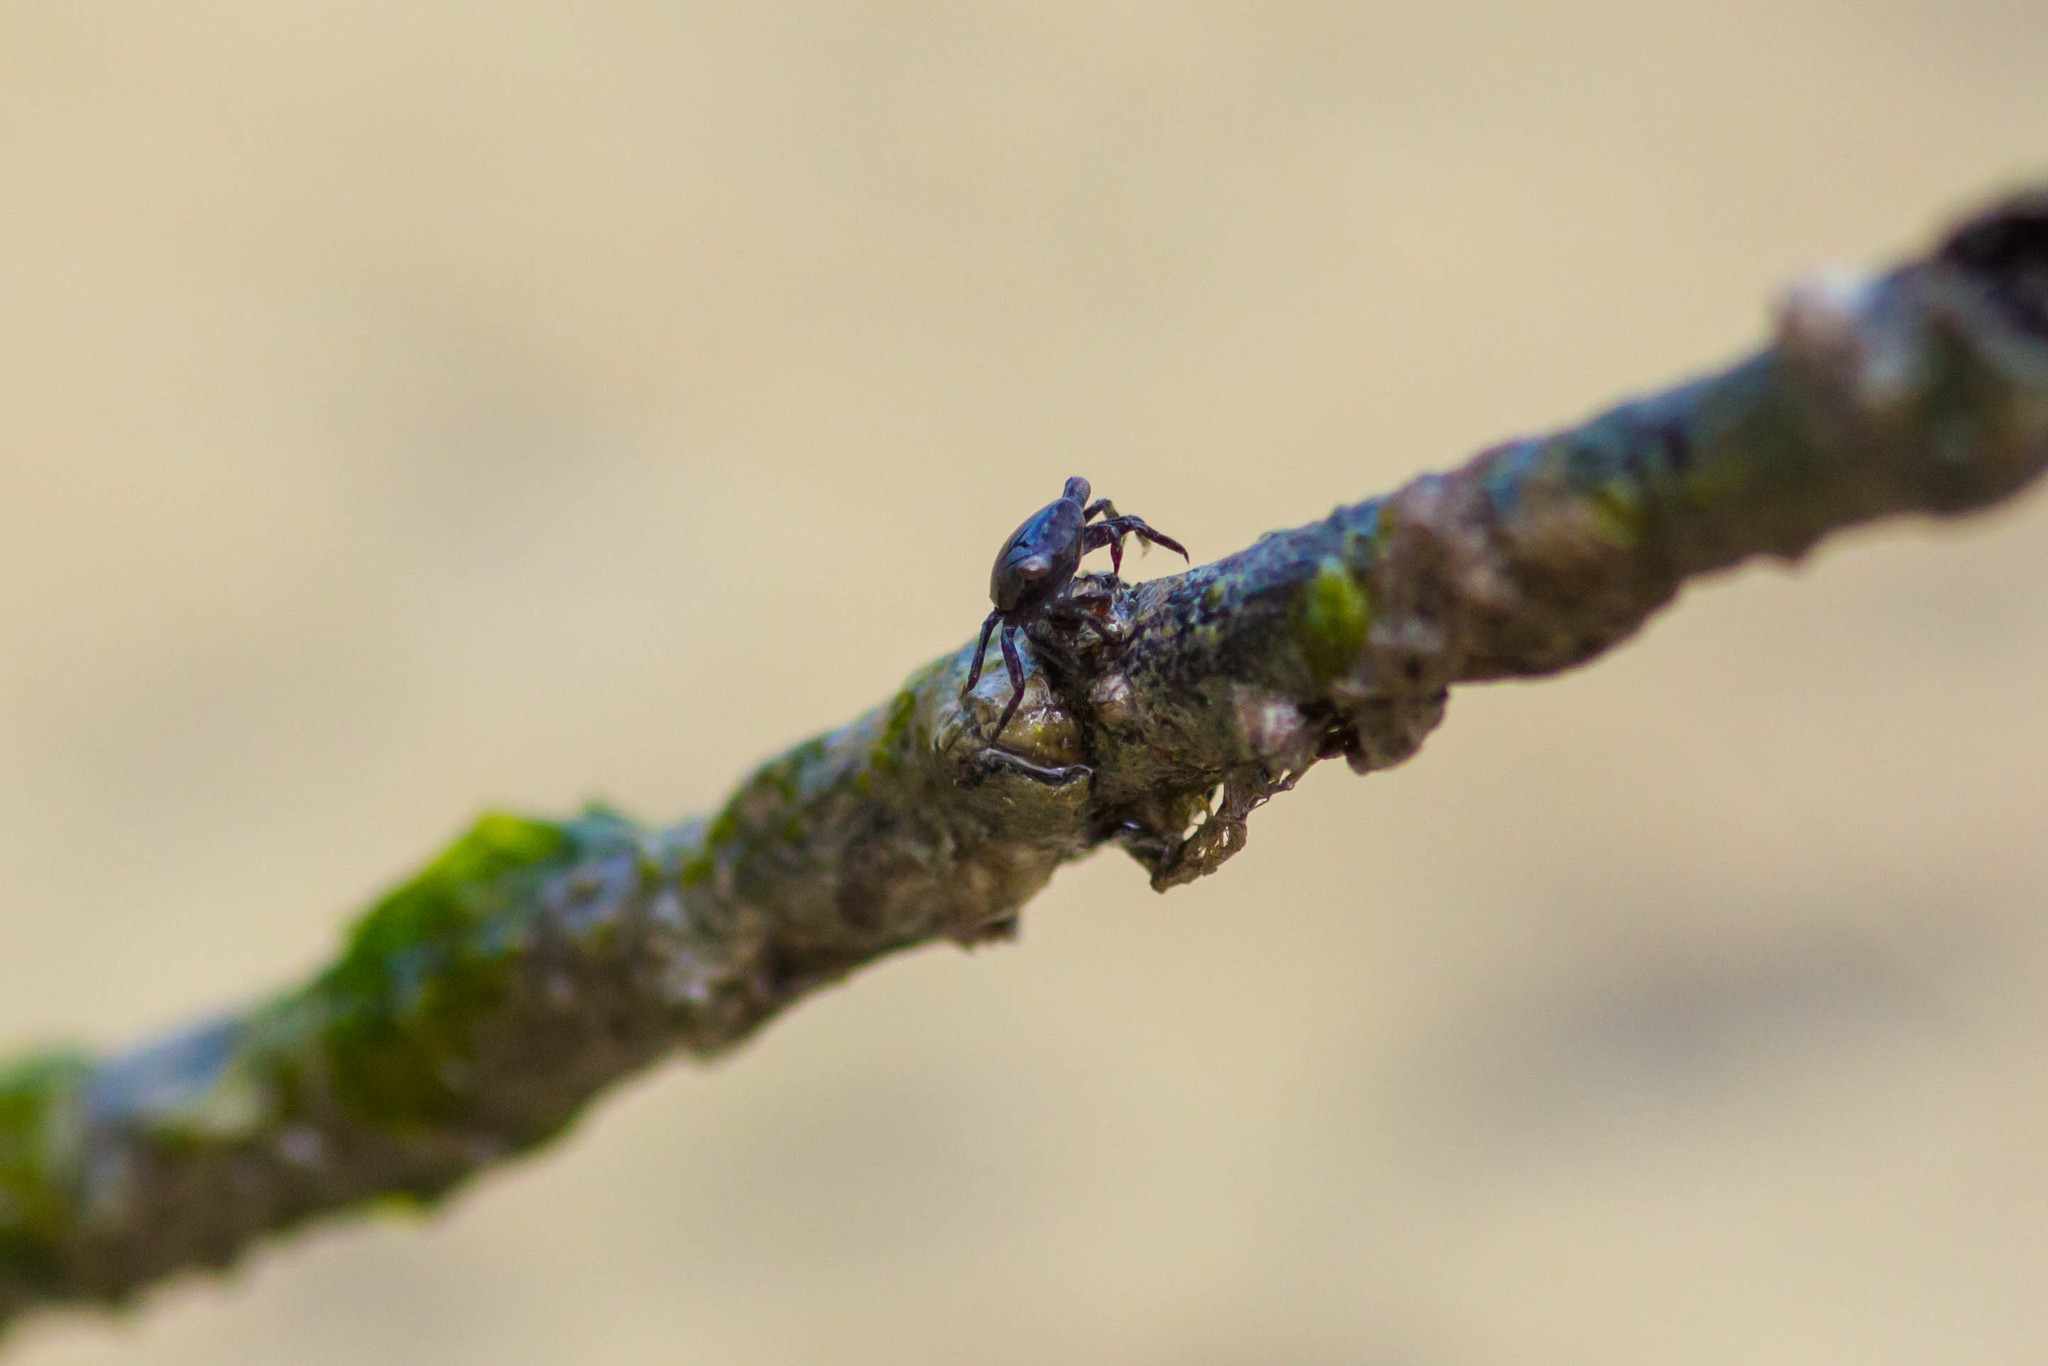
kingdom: Animalia
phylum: Arthropoda
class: Malacostraca
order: Decapoda
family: Sesarmidae
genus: Aratus
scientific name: Aratus pisonii
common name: Mangrove crab
